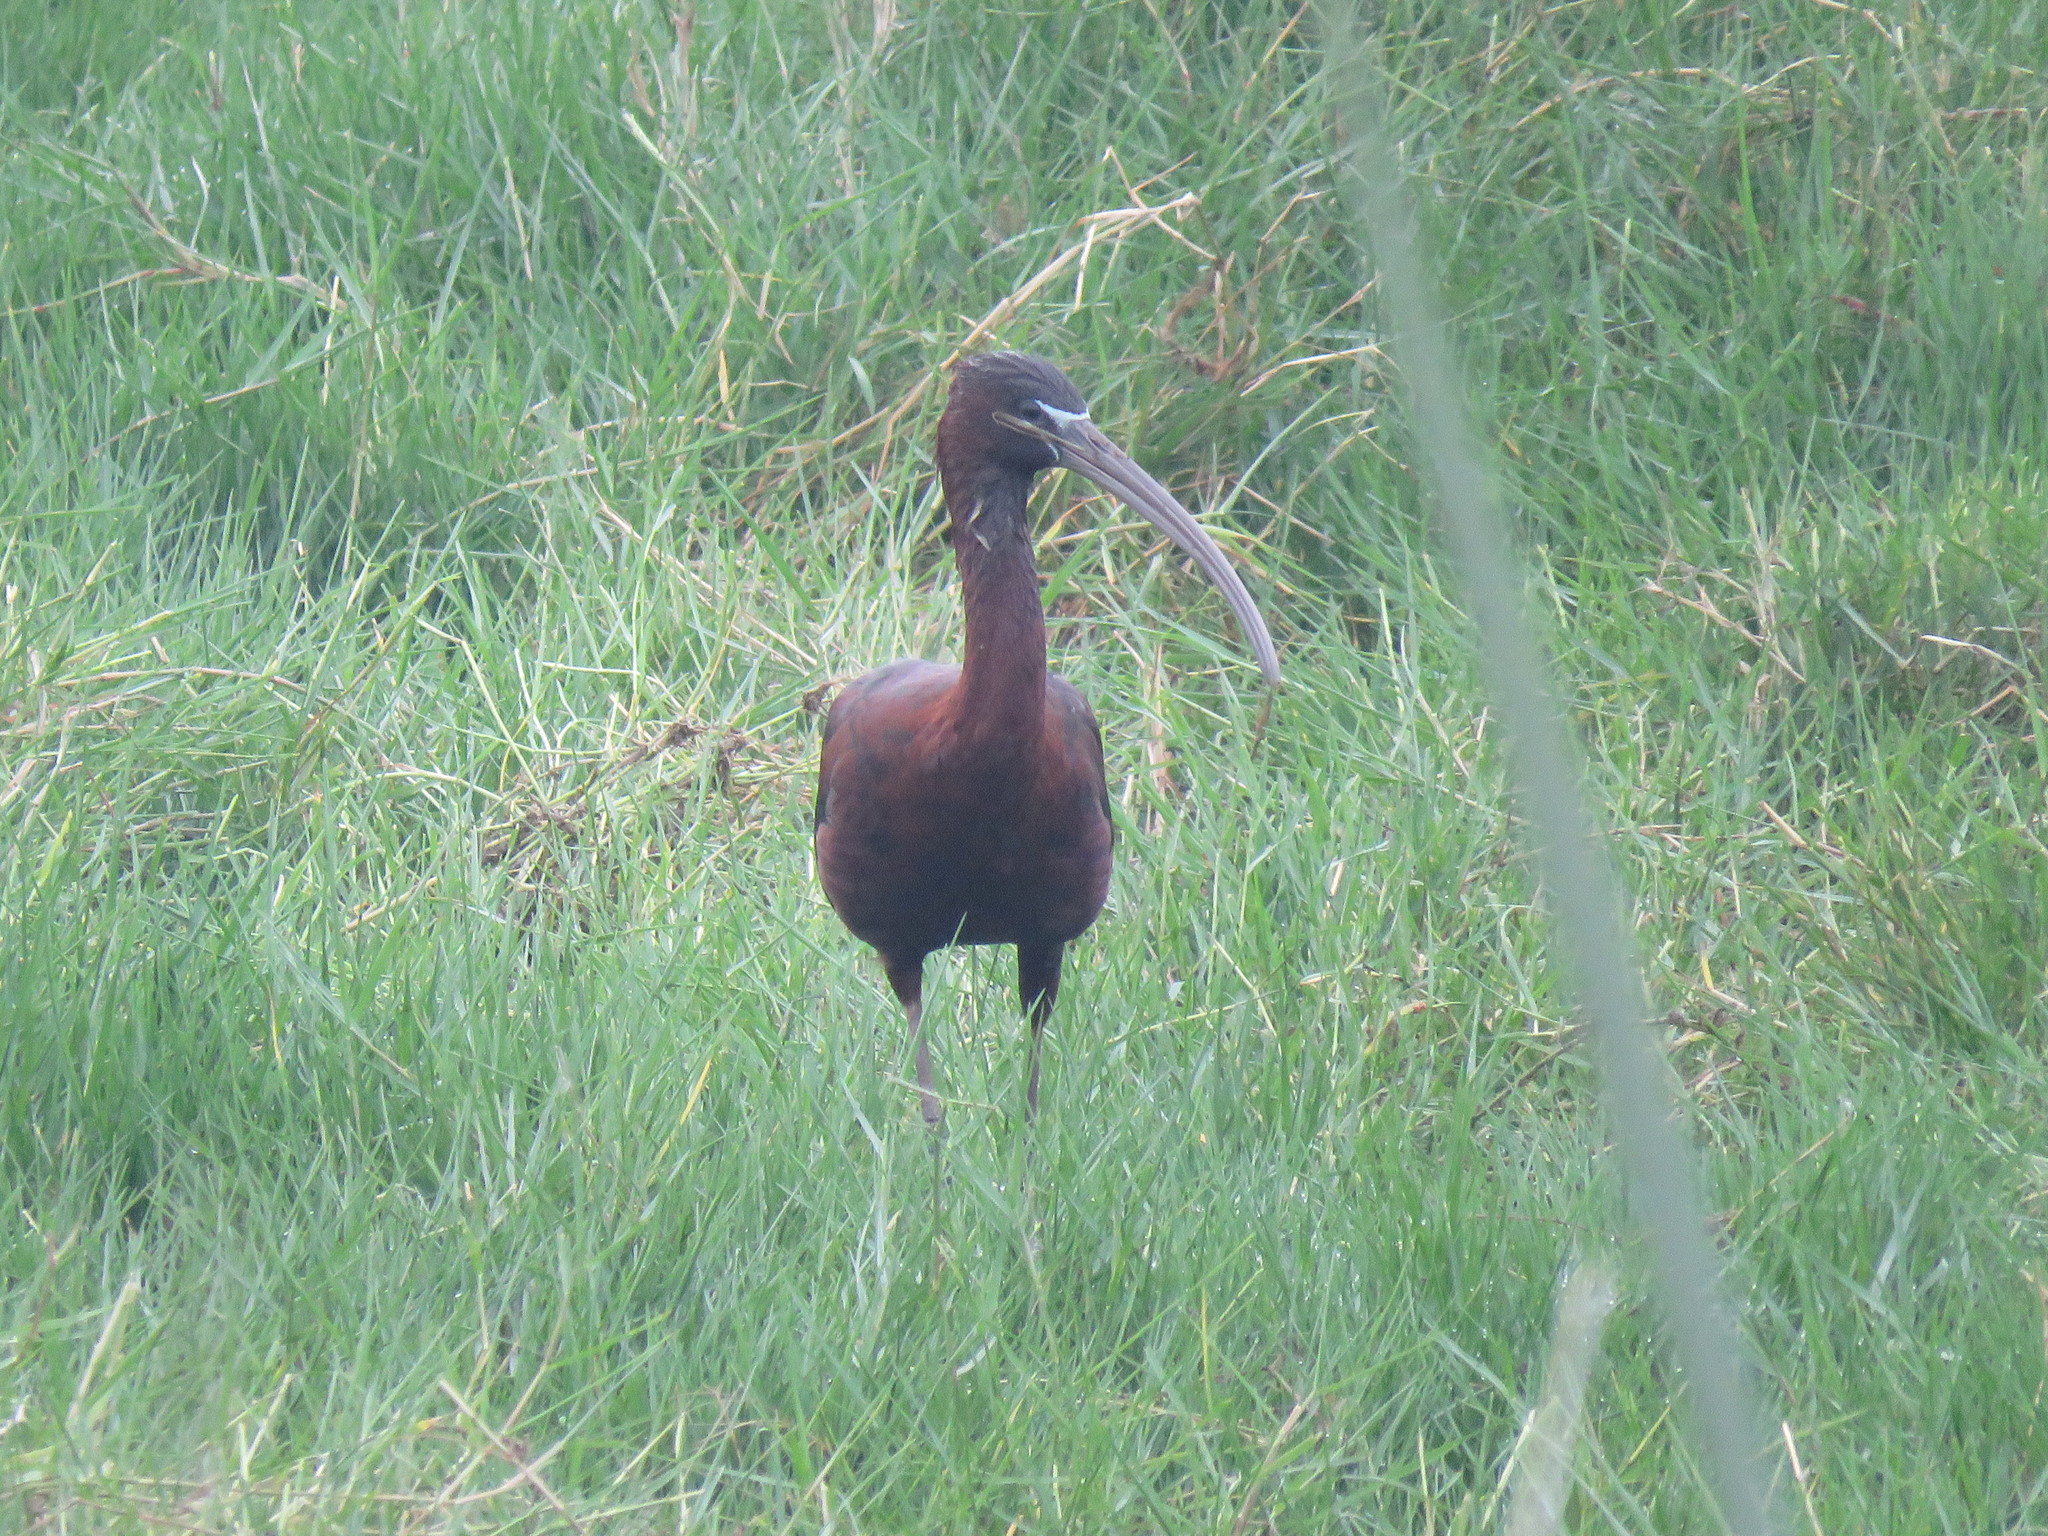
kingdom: Animalia
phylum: Chordata
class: Aves
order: Pelecaniformes
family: Threskiornithidae
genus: Plegadis
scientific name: Plegadis falcinellus
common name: Glossy ibis
